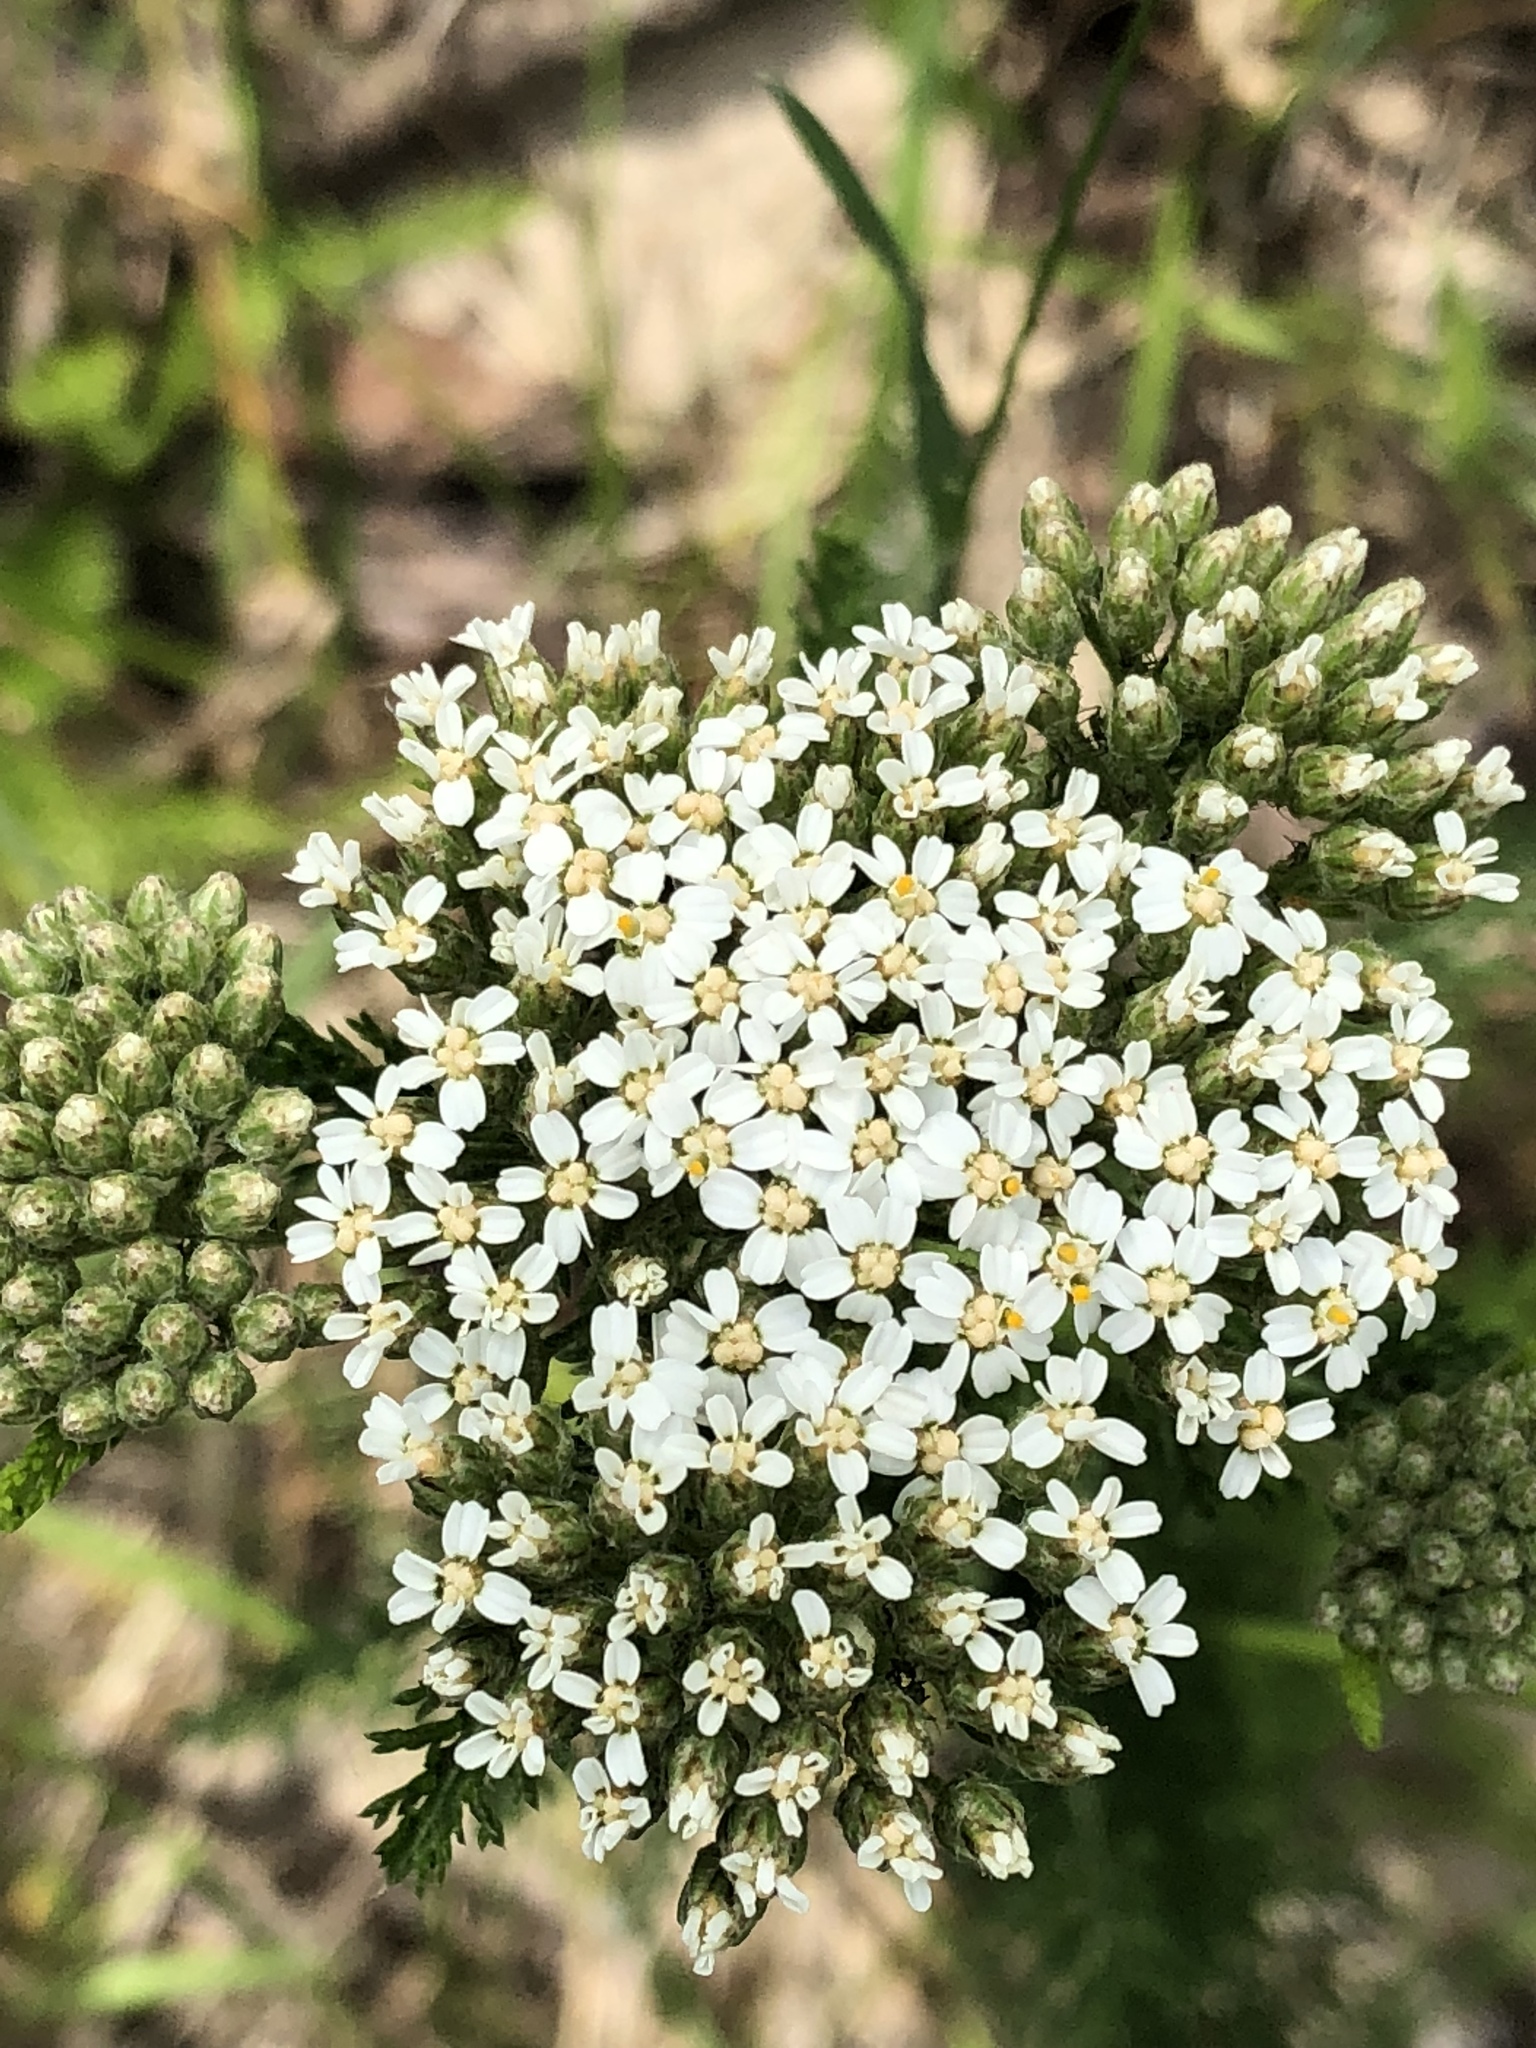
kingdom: Plantae
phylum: Tracheophyta
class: Magnoliopsida
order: Asterales
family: Asteraceae
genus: Achillea
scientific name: Achillea millefolium
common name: Yarrow
